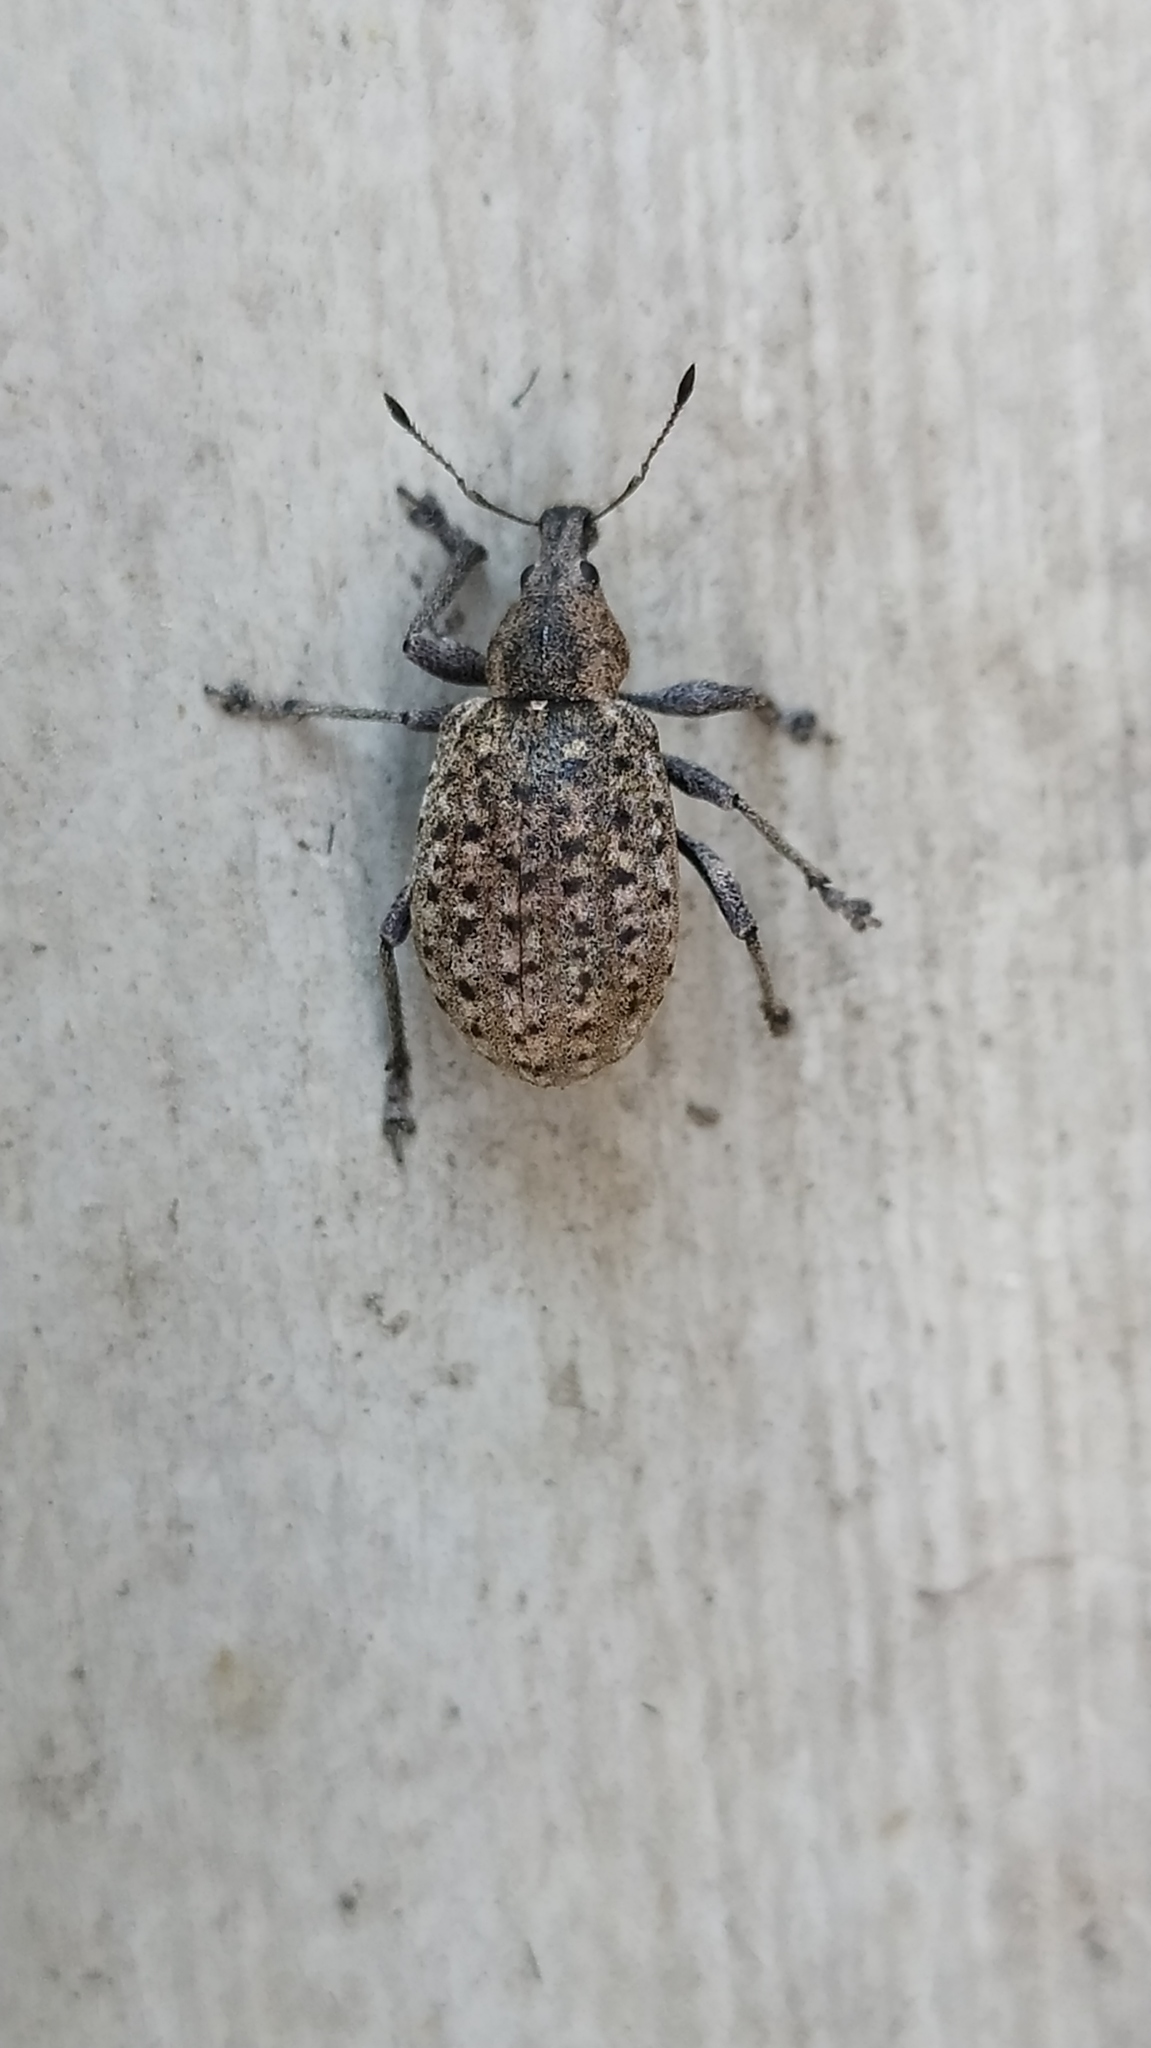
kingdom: Animalia
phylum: Arthropoda
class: Insecta
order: Coleoptera
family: Curculionidae
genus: Liophloeus
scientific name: Liophloeus tessulatus
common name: Weevil
